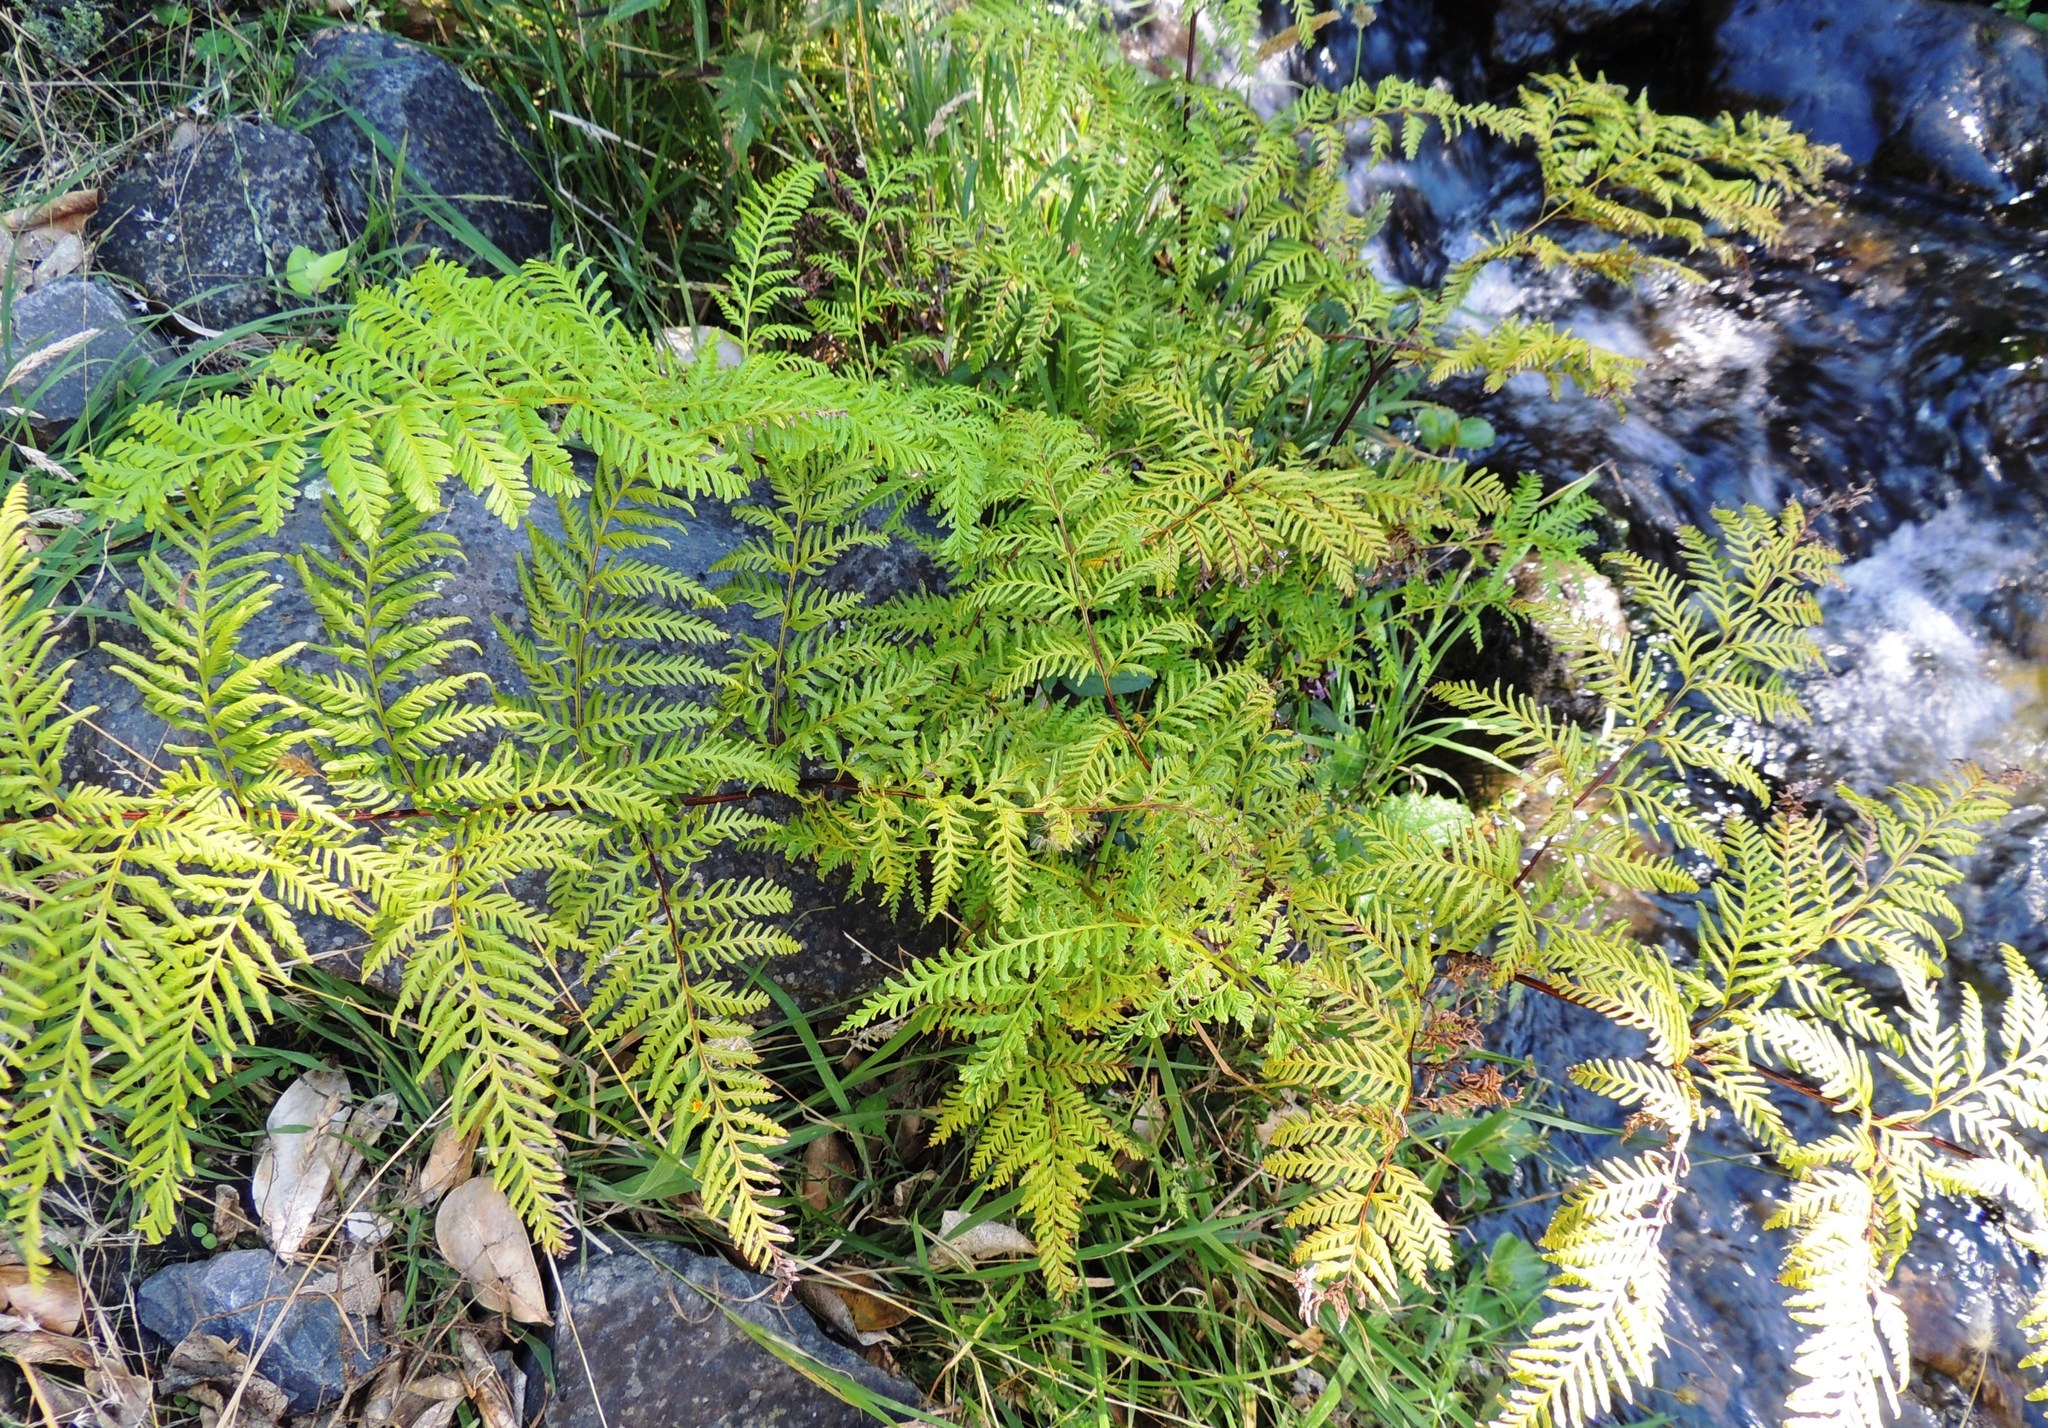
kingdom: Plantae
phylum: Tracheophyta
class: Polypodiopsida
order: Polypodiales
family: Pteridaceae
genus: Pteris
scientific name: Pteris tremula
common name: Australian brake
